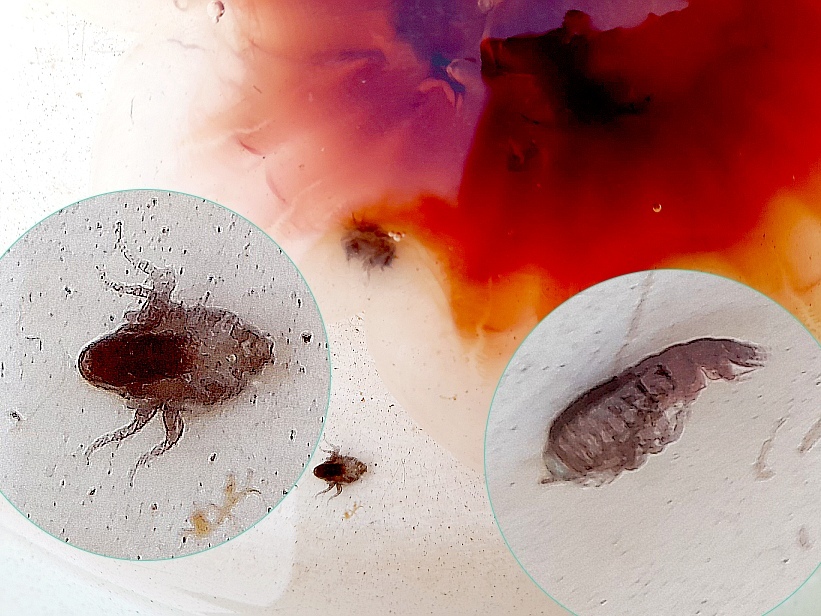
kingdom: Animalia
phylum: Arthropoda
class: Malacostraca
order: Amphipoda
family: Hyperiidae
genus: Hyperia
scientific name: Hyperia galba
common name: Big-eye amphipod
